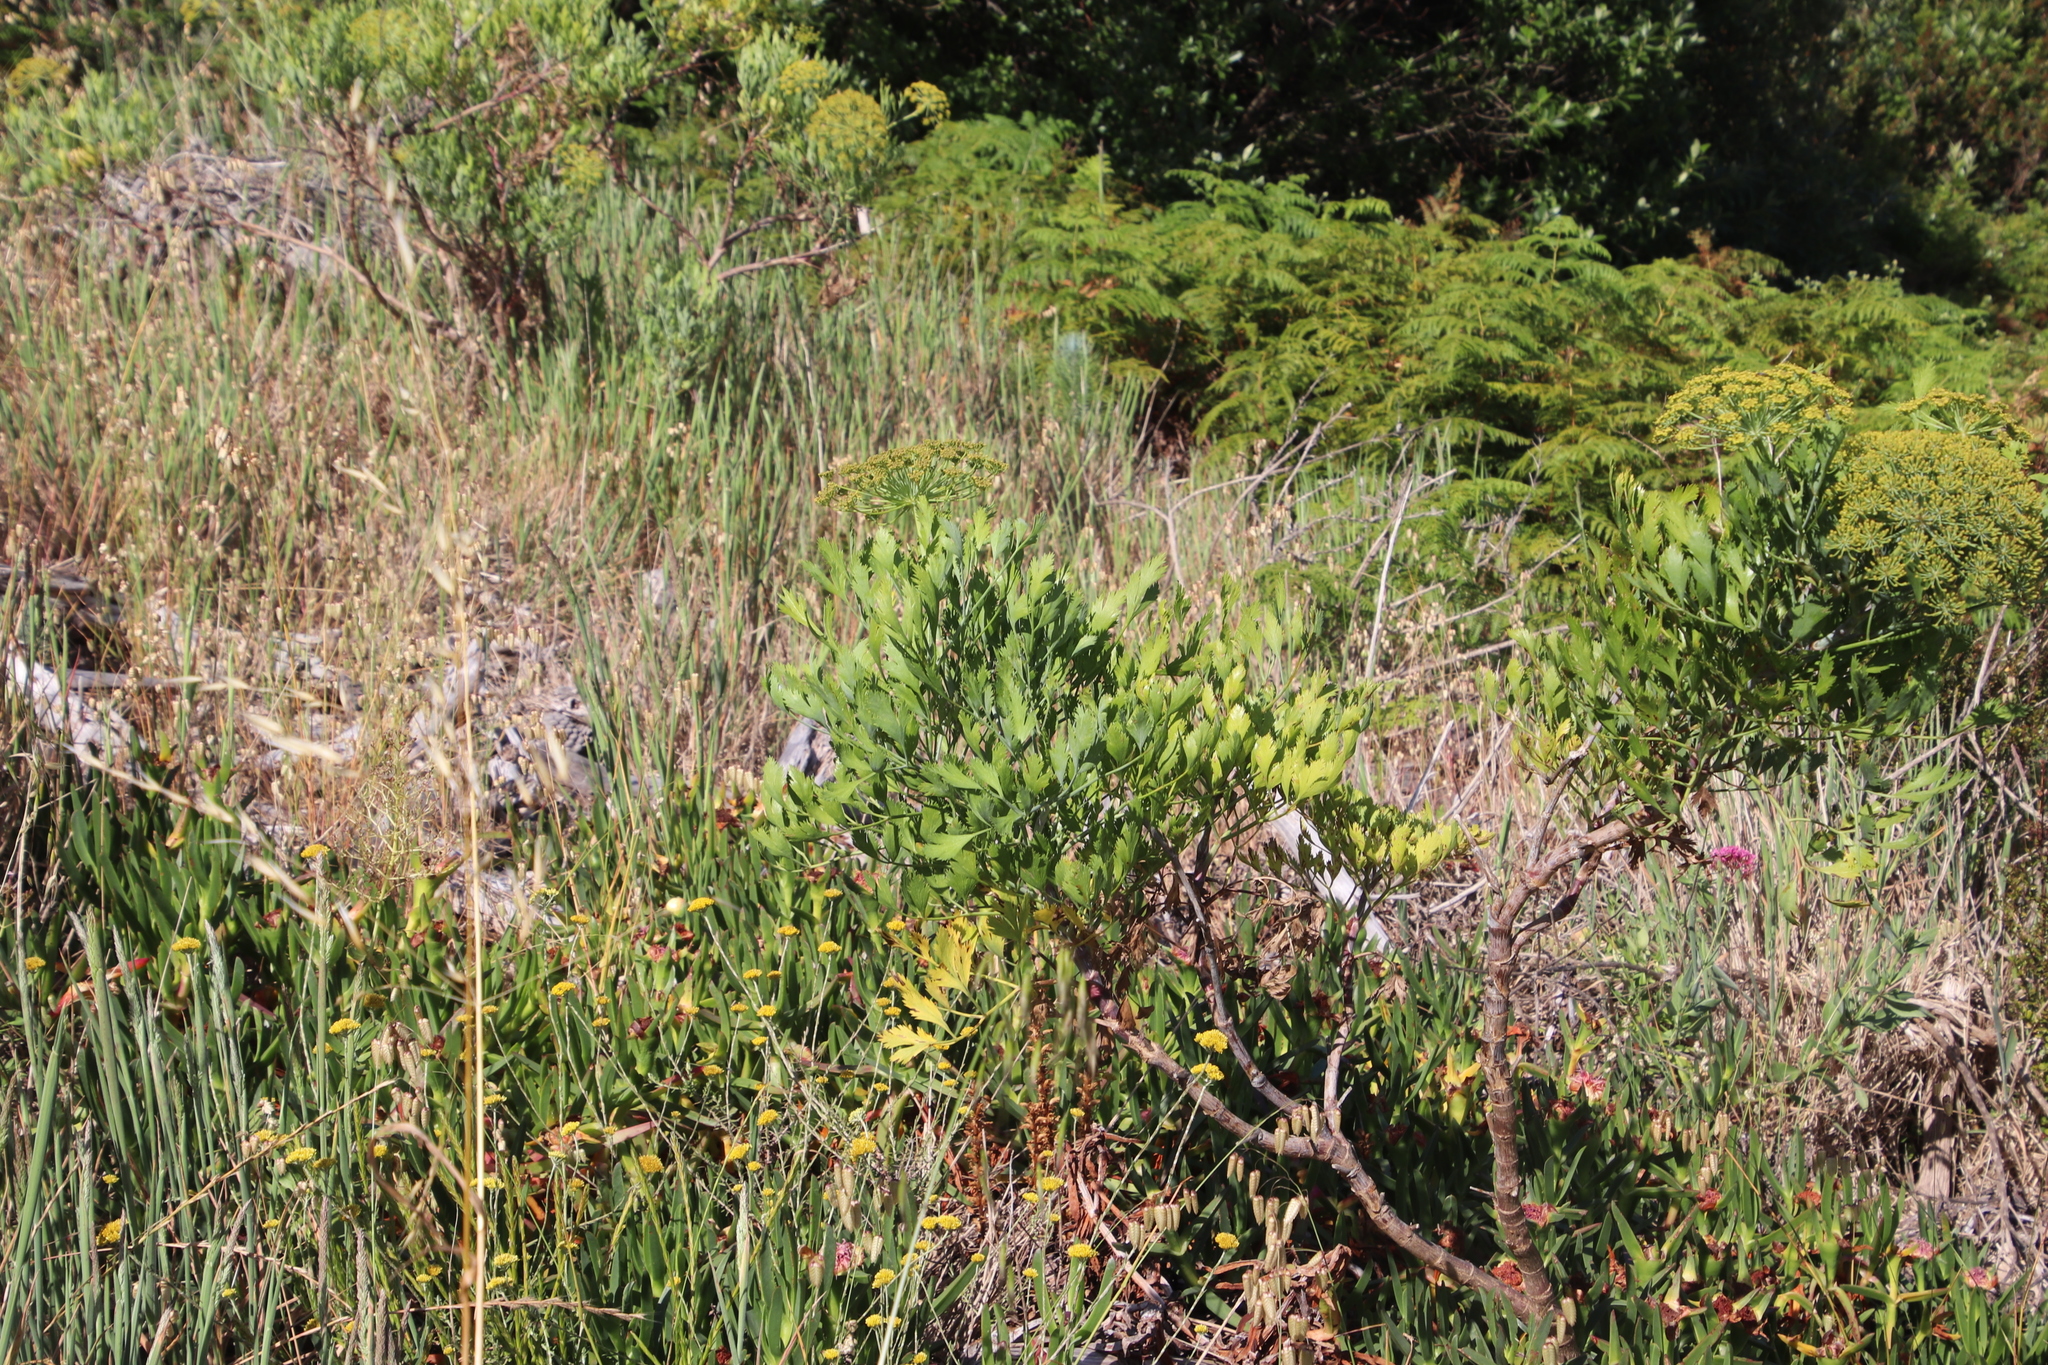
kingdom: Plantae
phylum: Tracheophyta
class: Magnoliopsida
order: Apiales
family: Apiaceae
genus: Notobubon
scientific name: Notobubon galbanum
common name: Blisterbush
